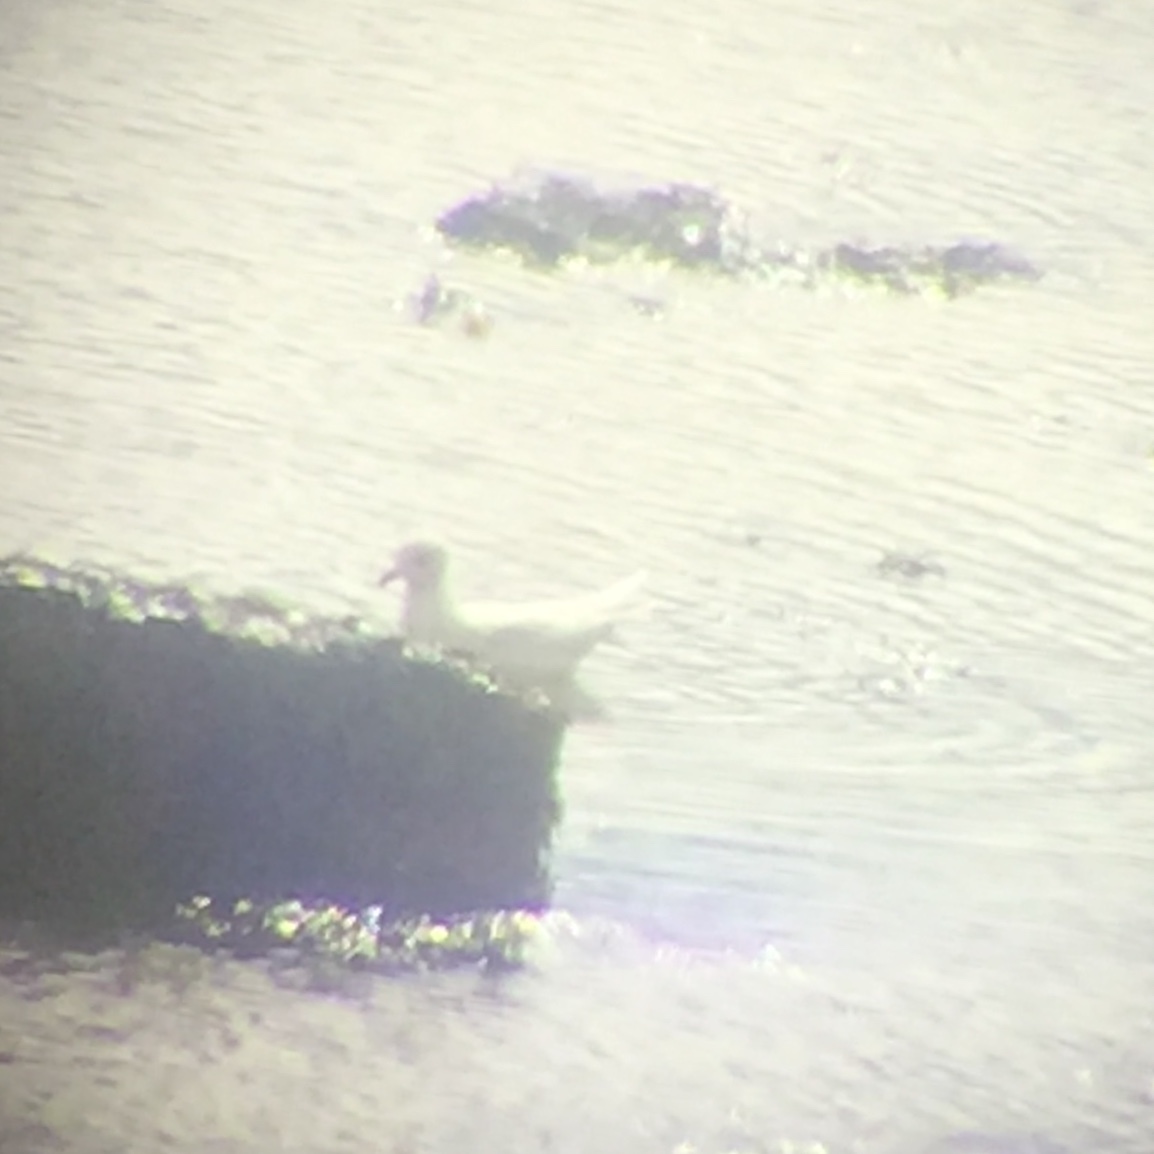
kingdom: Animalia
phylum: Chordata
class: Aves
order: Charadriiformes
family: Laridae
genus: Larus
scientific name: Larus glaucoides
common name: Iceland gull
